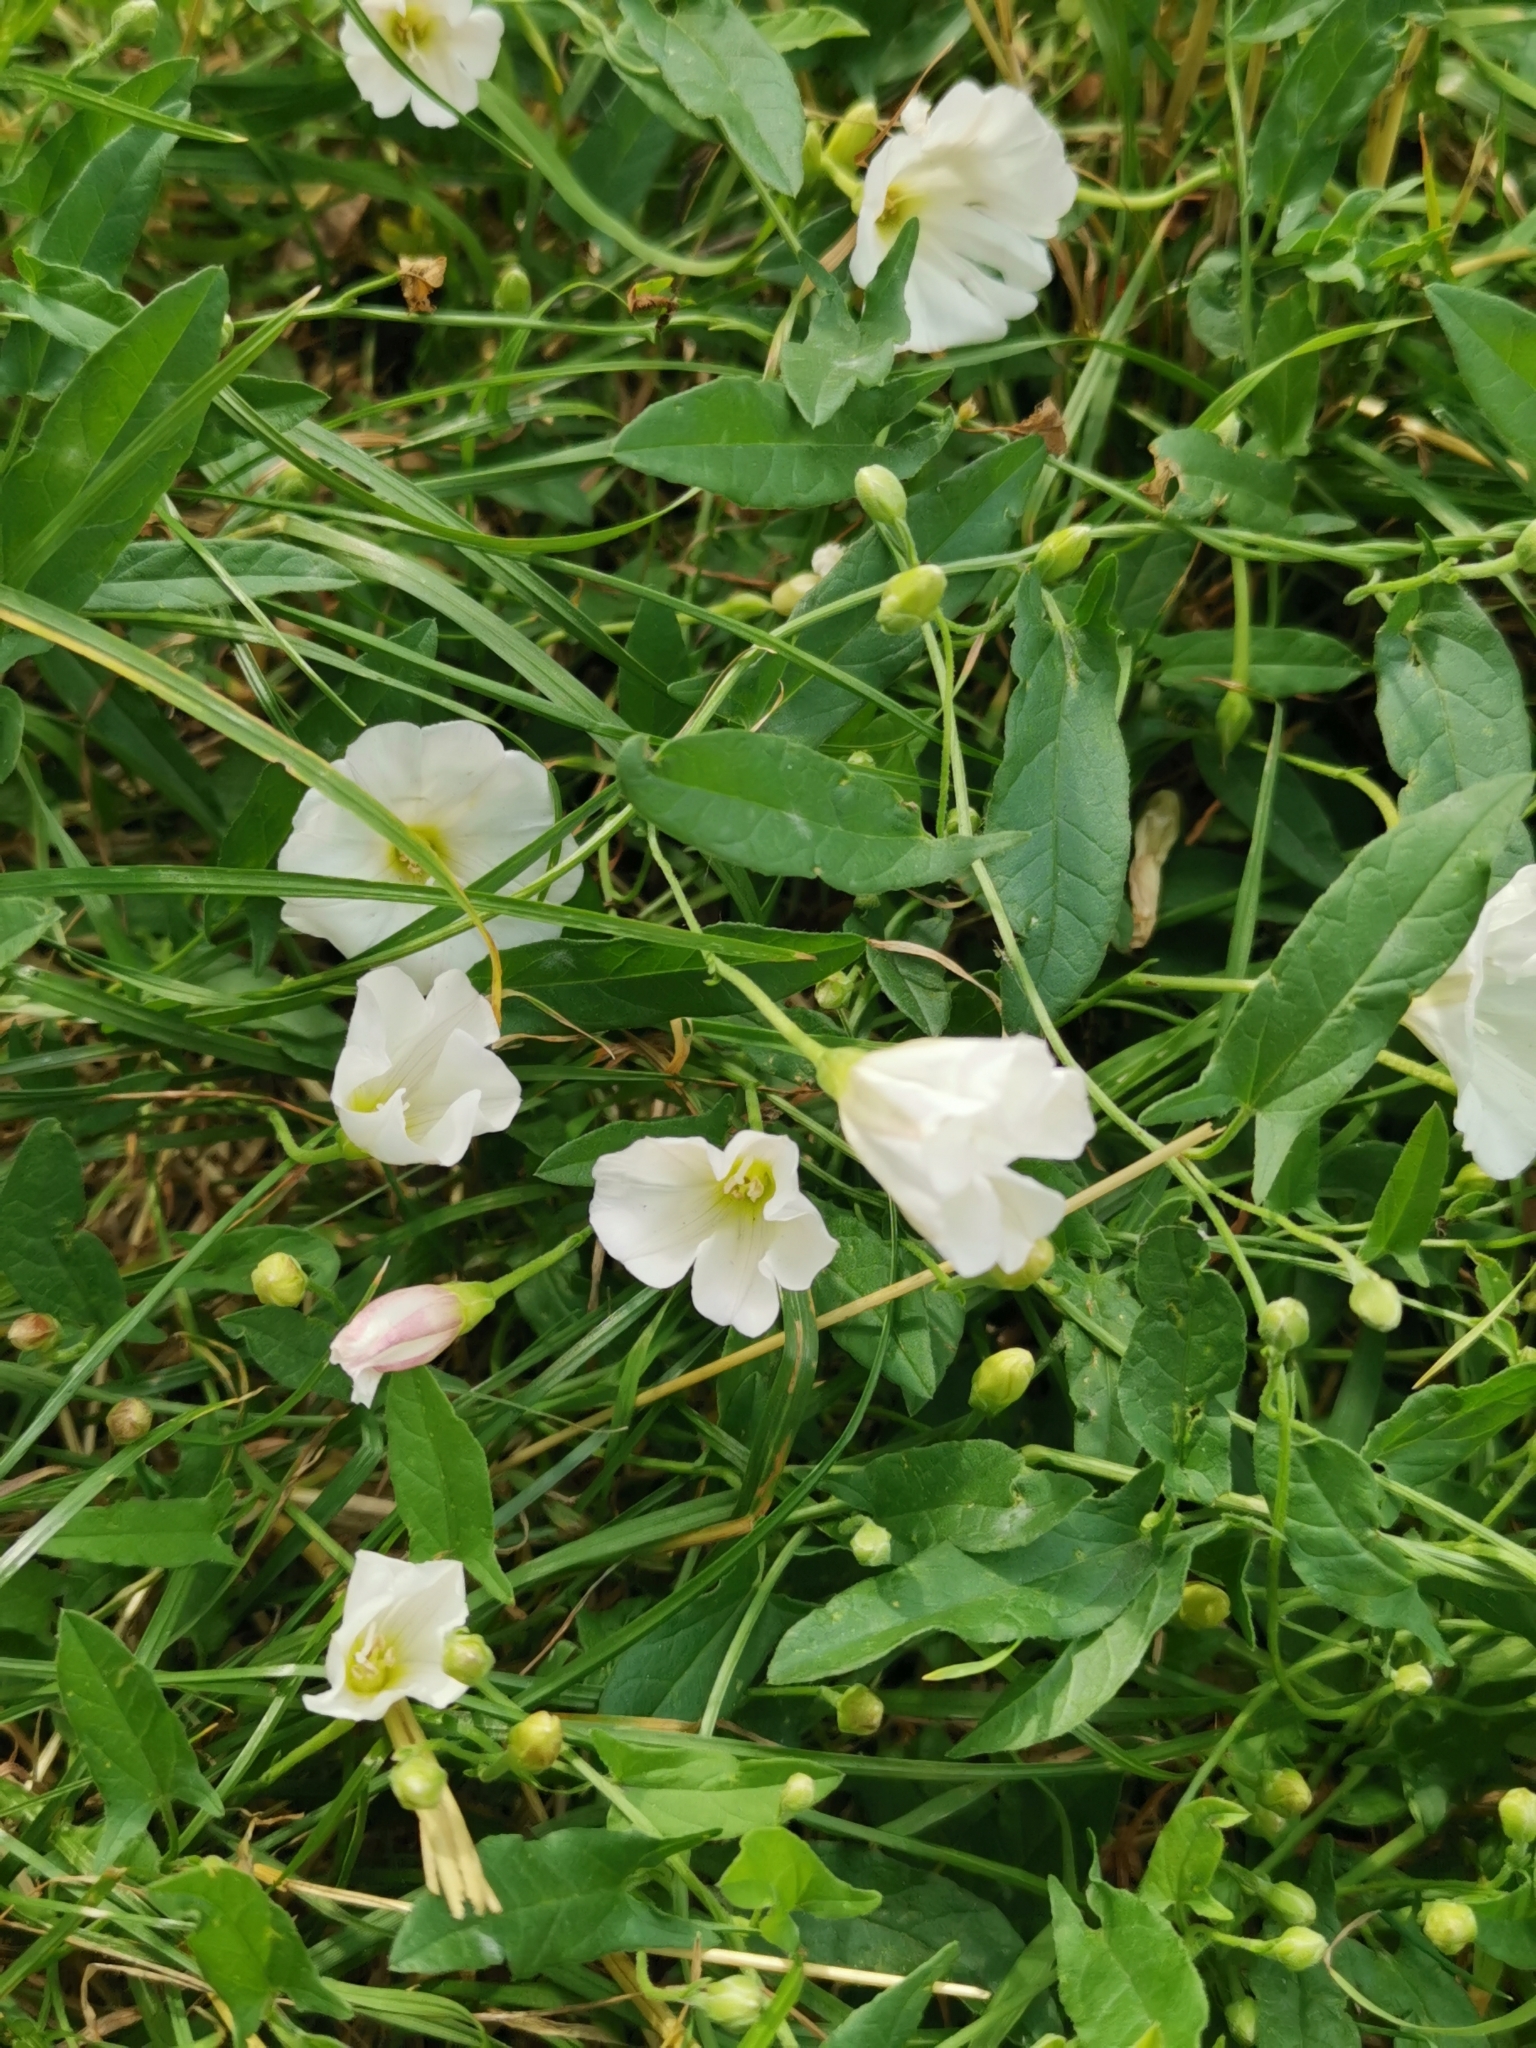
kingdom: Plantae
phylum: Tracheophyta
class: Magnoliopsida
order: Solanales
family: Convolvulaceae
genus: Convolvulus
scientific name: Convolvulus arvensis
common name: Field bindweed
